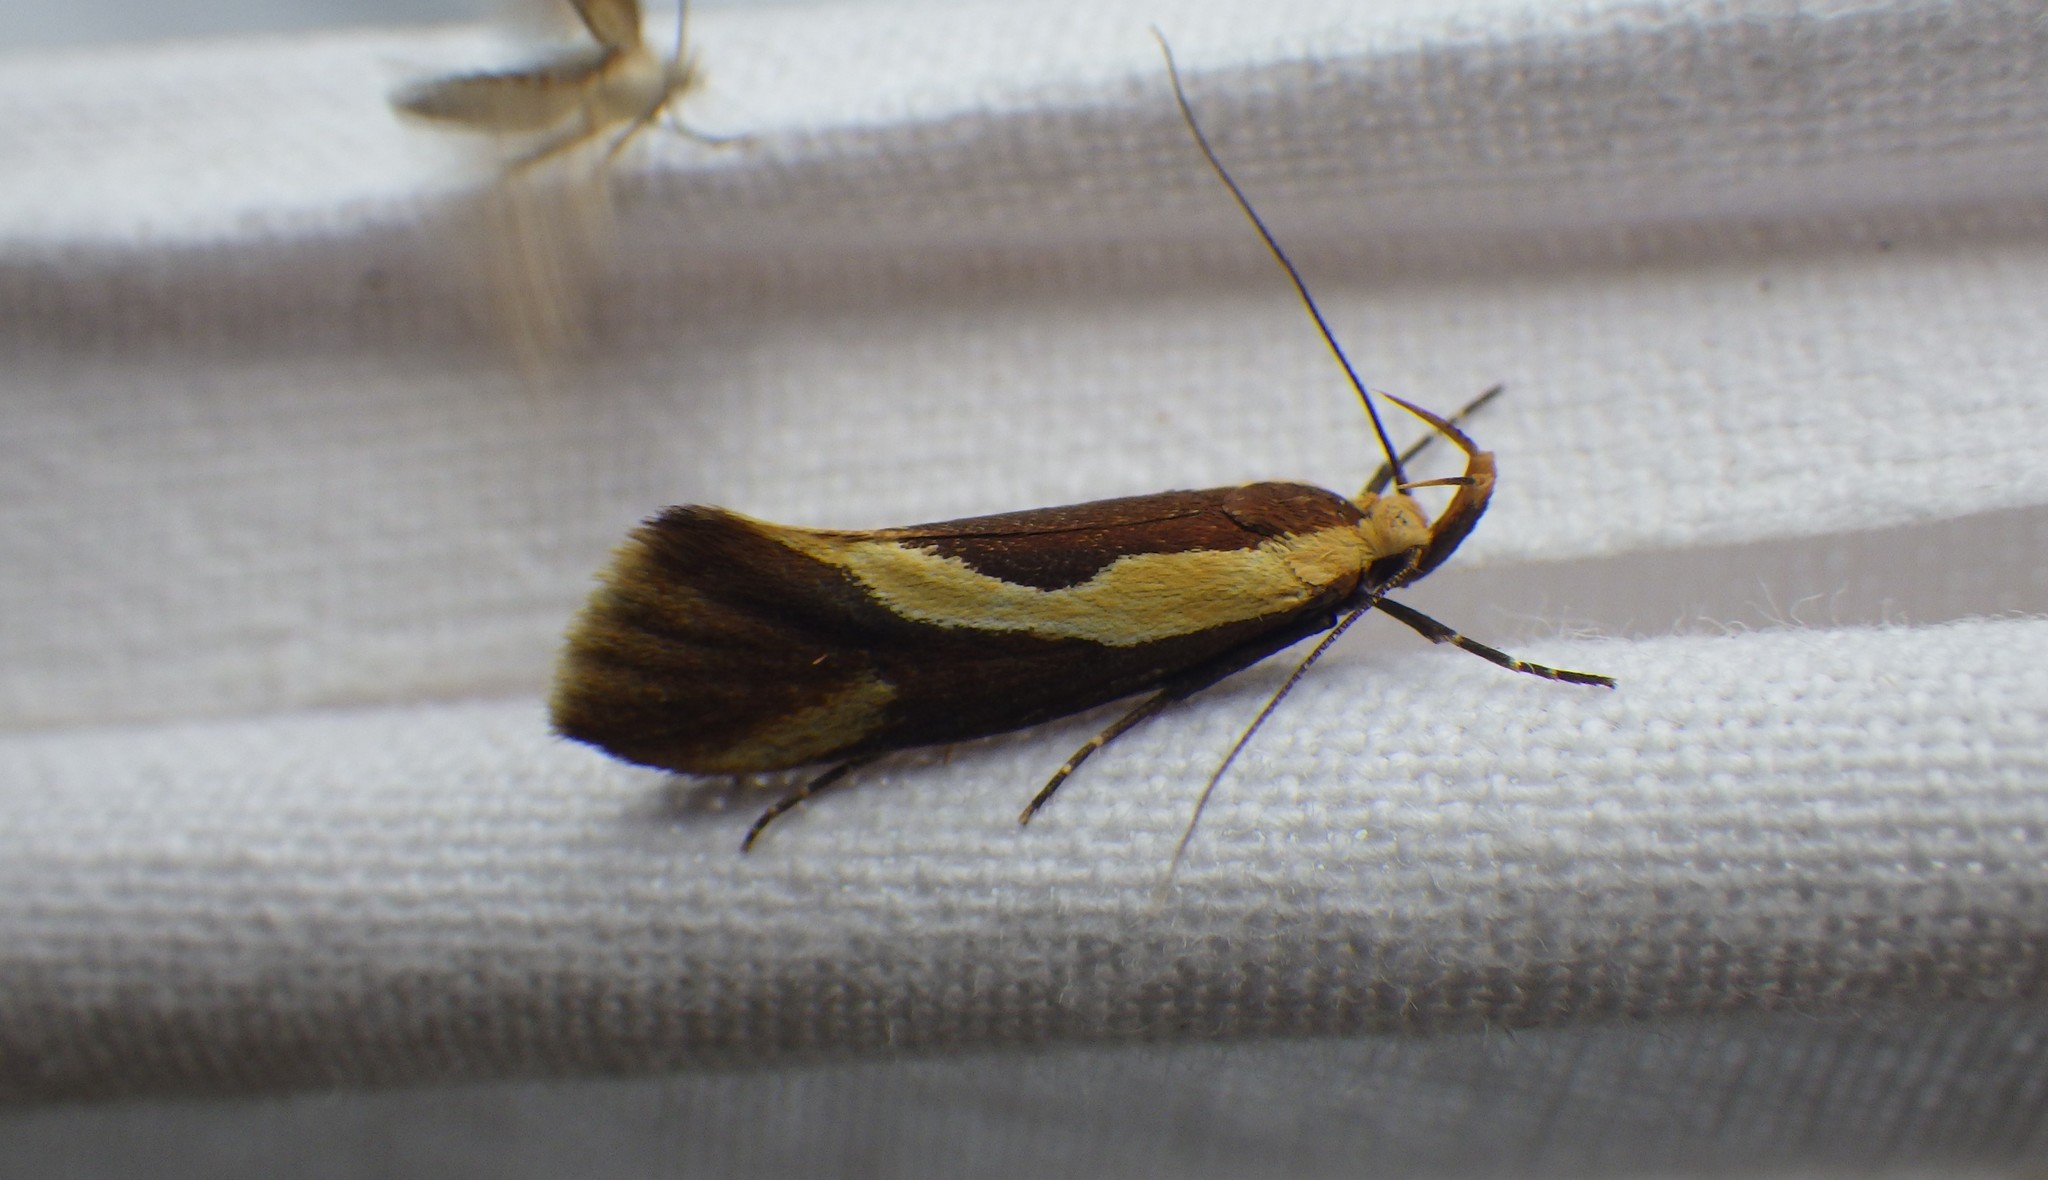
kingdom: Animalia
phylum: Arthropoda
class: Insecta
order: Lepidoptera
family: Oecophoridae
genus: Harpella
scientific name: Harpella forficella
